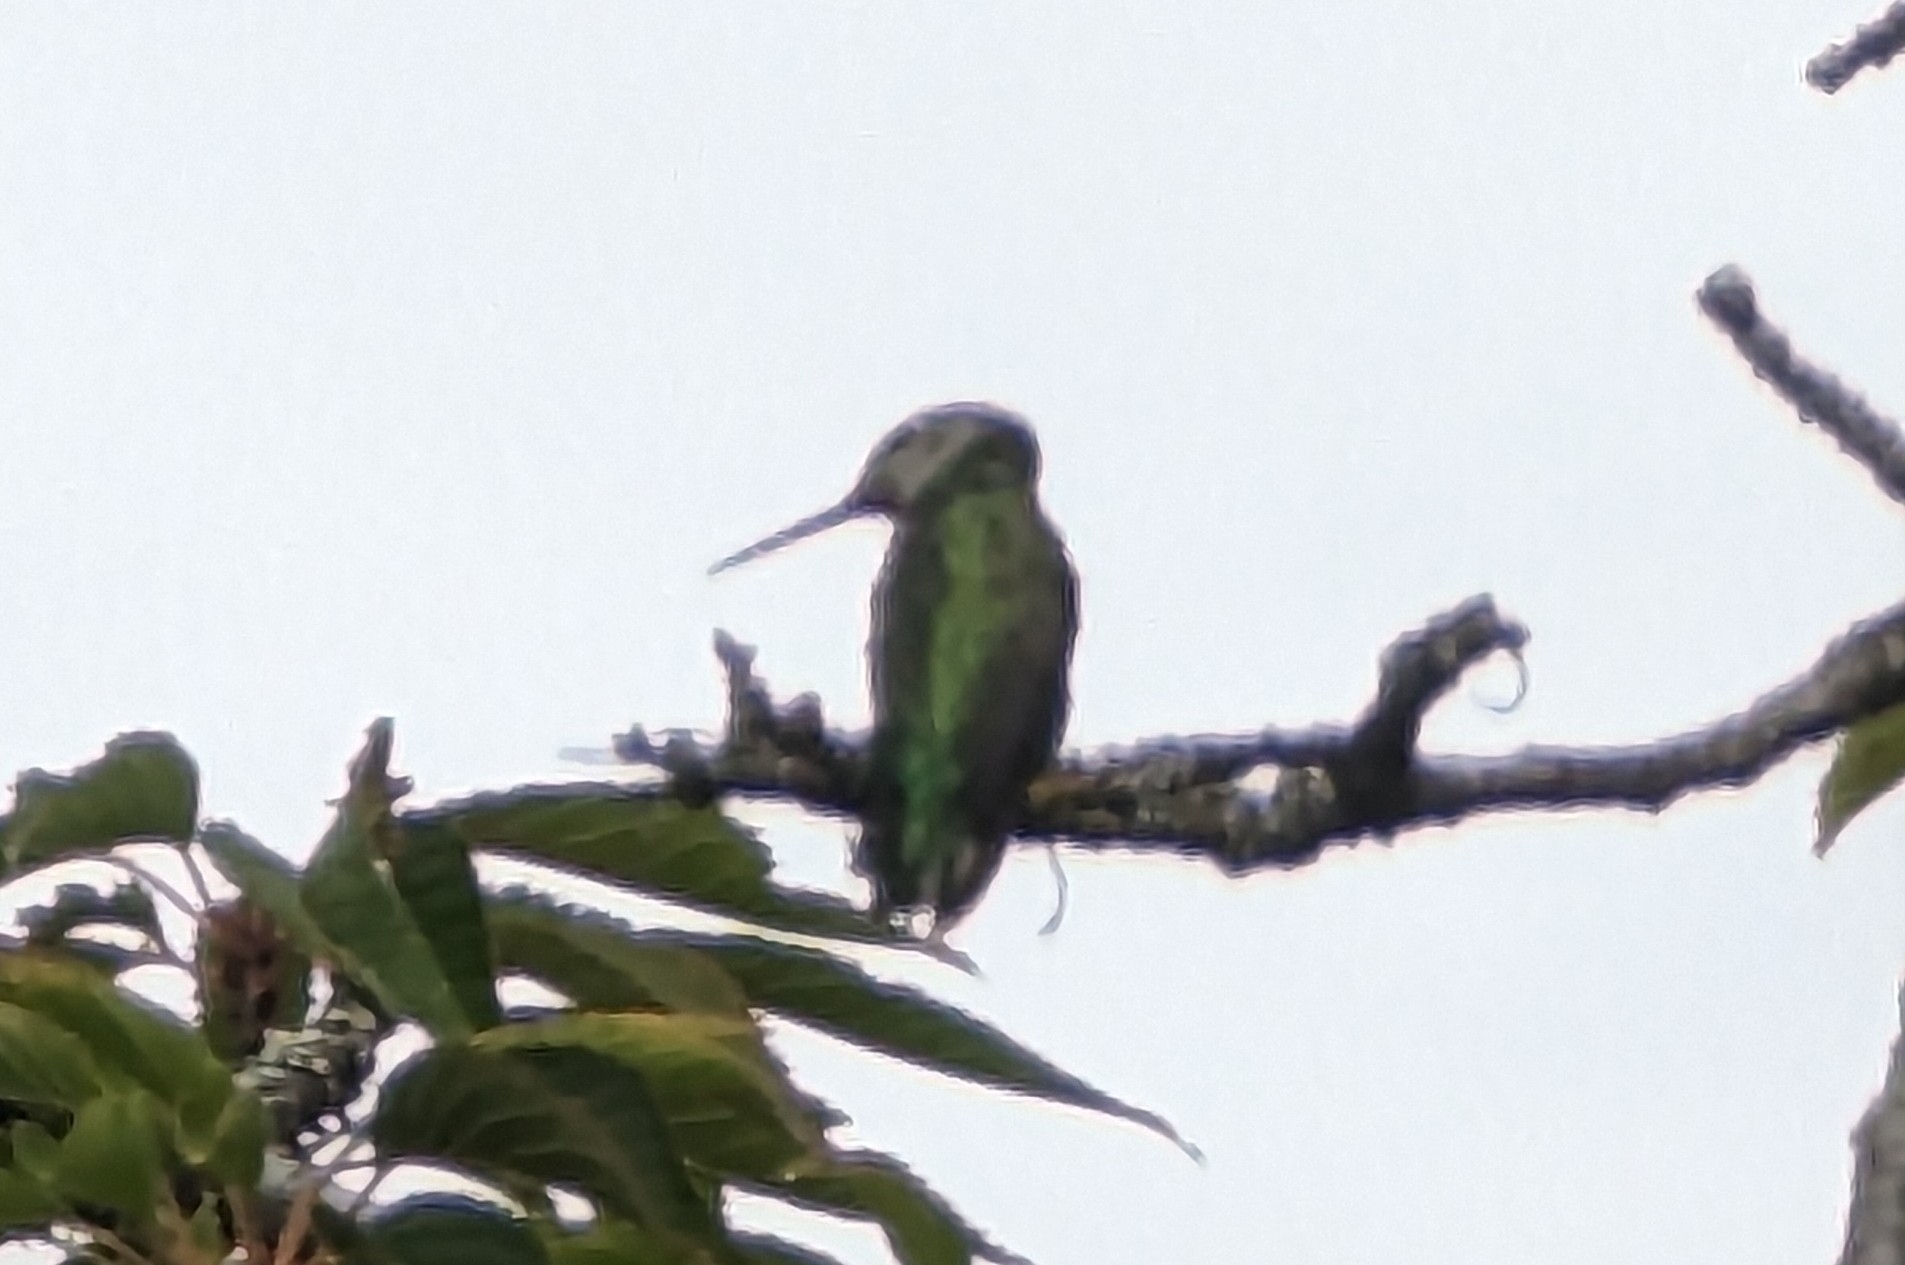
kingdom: Animalia
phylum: Chordata
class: Aves
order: Apodiformes
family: Trochilidae
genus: Calypte
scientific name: Calypte anna
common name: Anna's hummingbird
